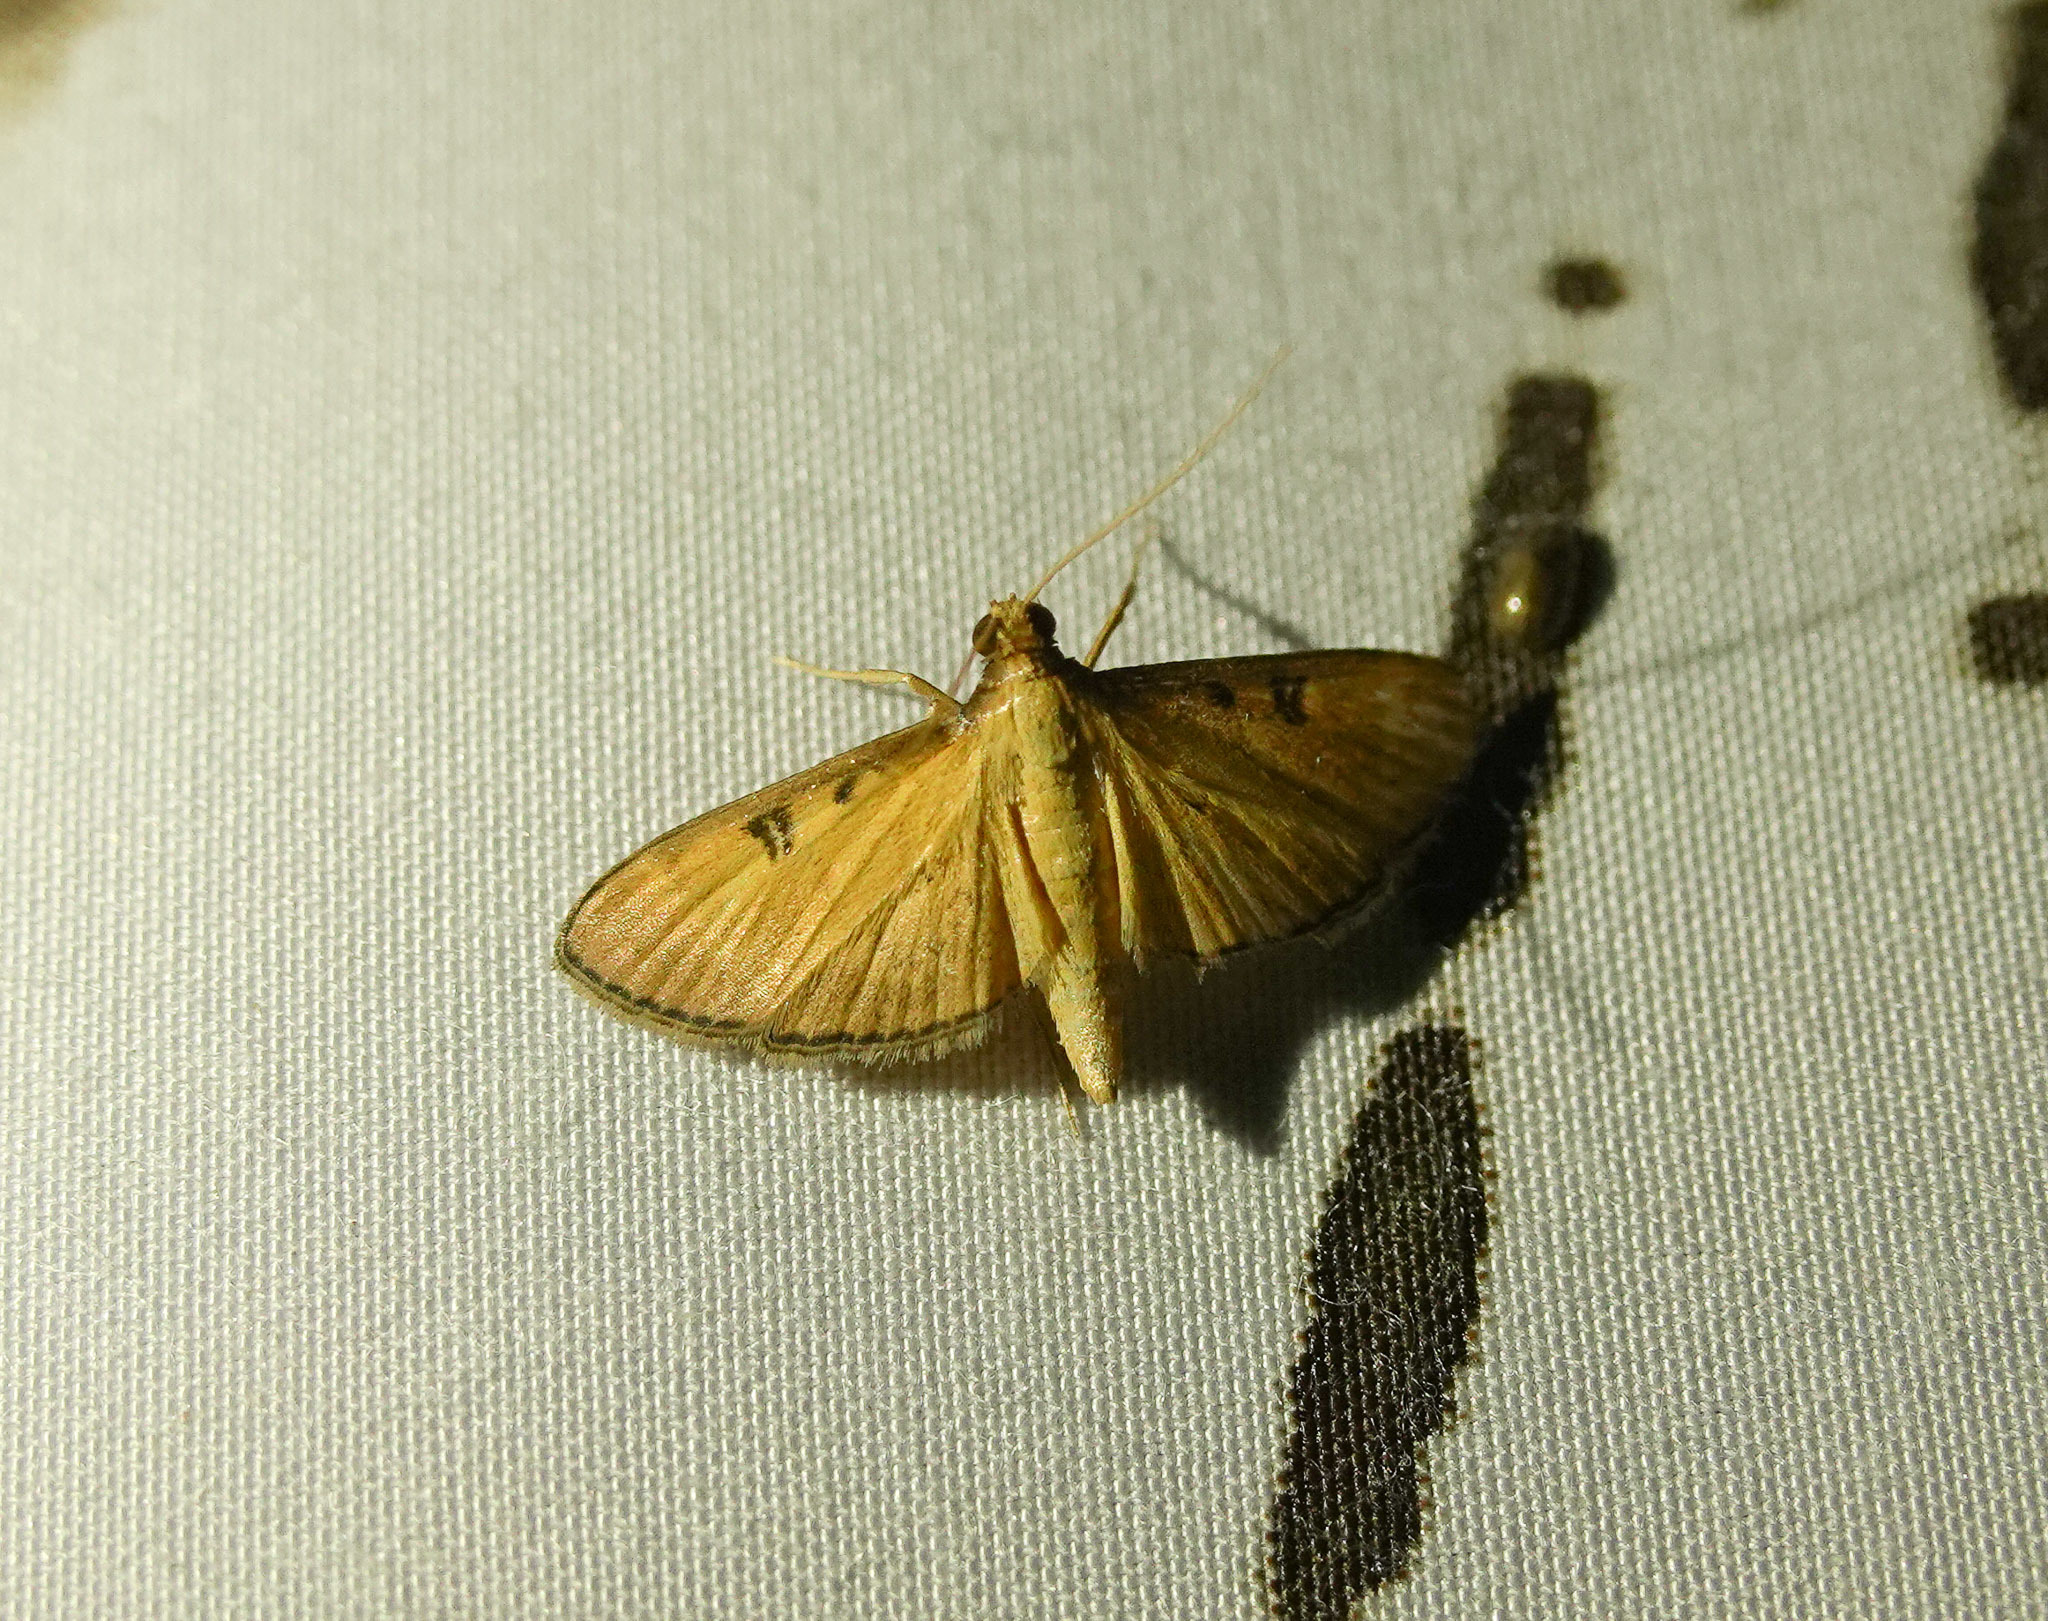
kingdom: Animalia
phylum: Arthropoda
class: Insecta
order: Lepidoptera
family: Crambidae
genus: Tatobotys
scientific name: Tatobotys biannulalis
